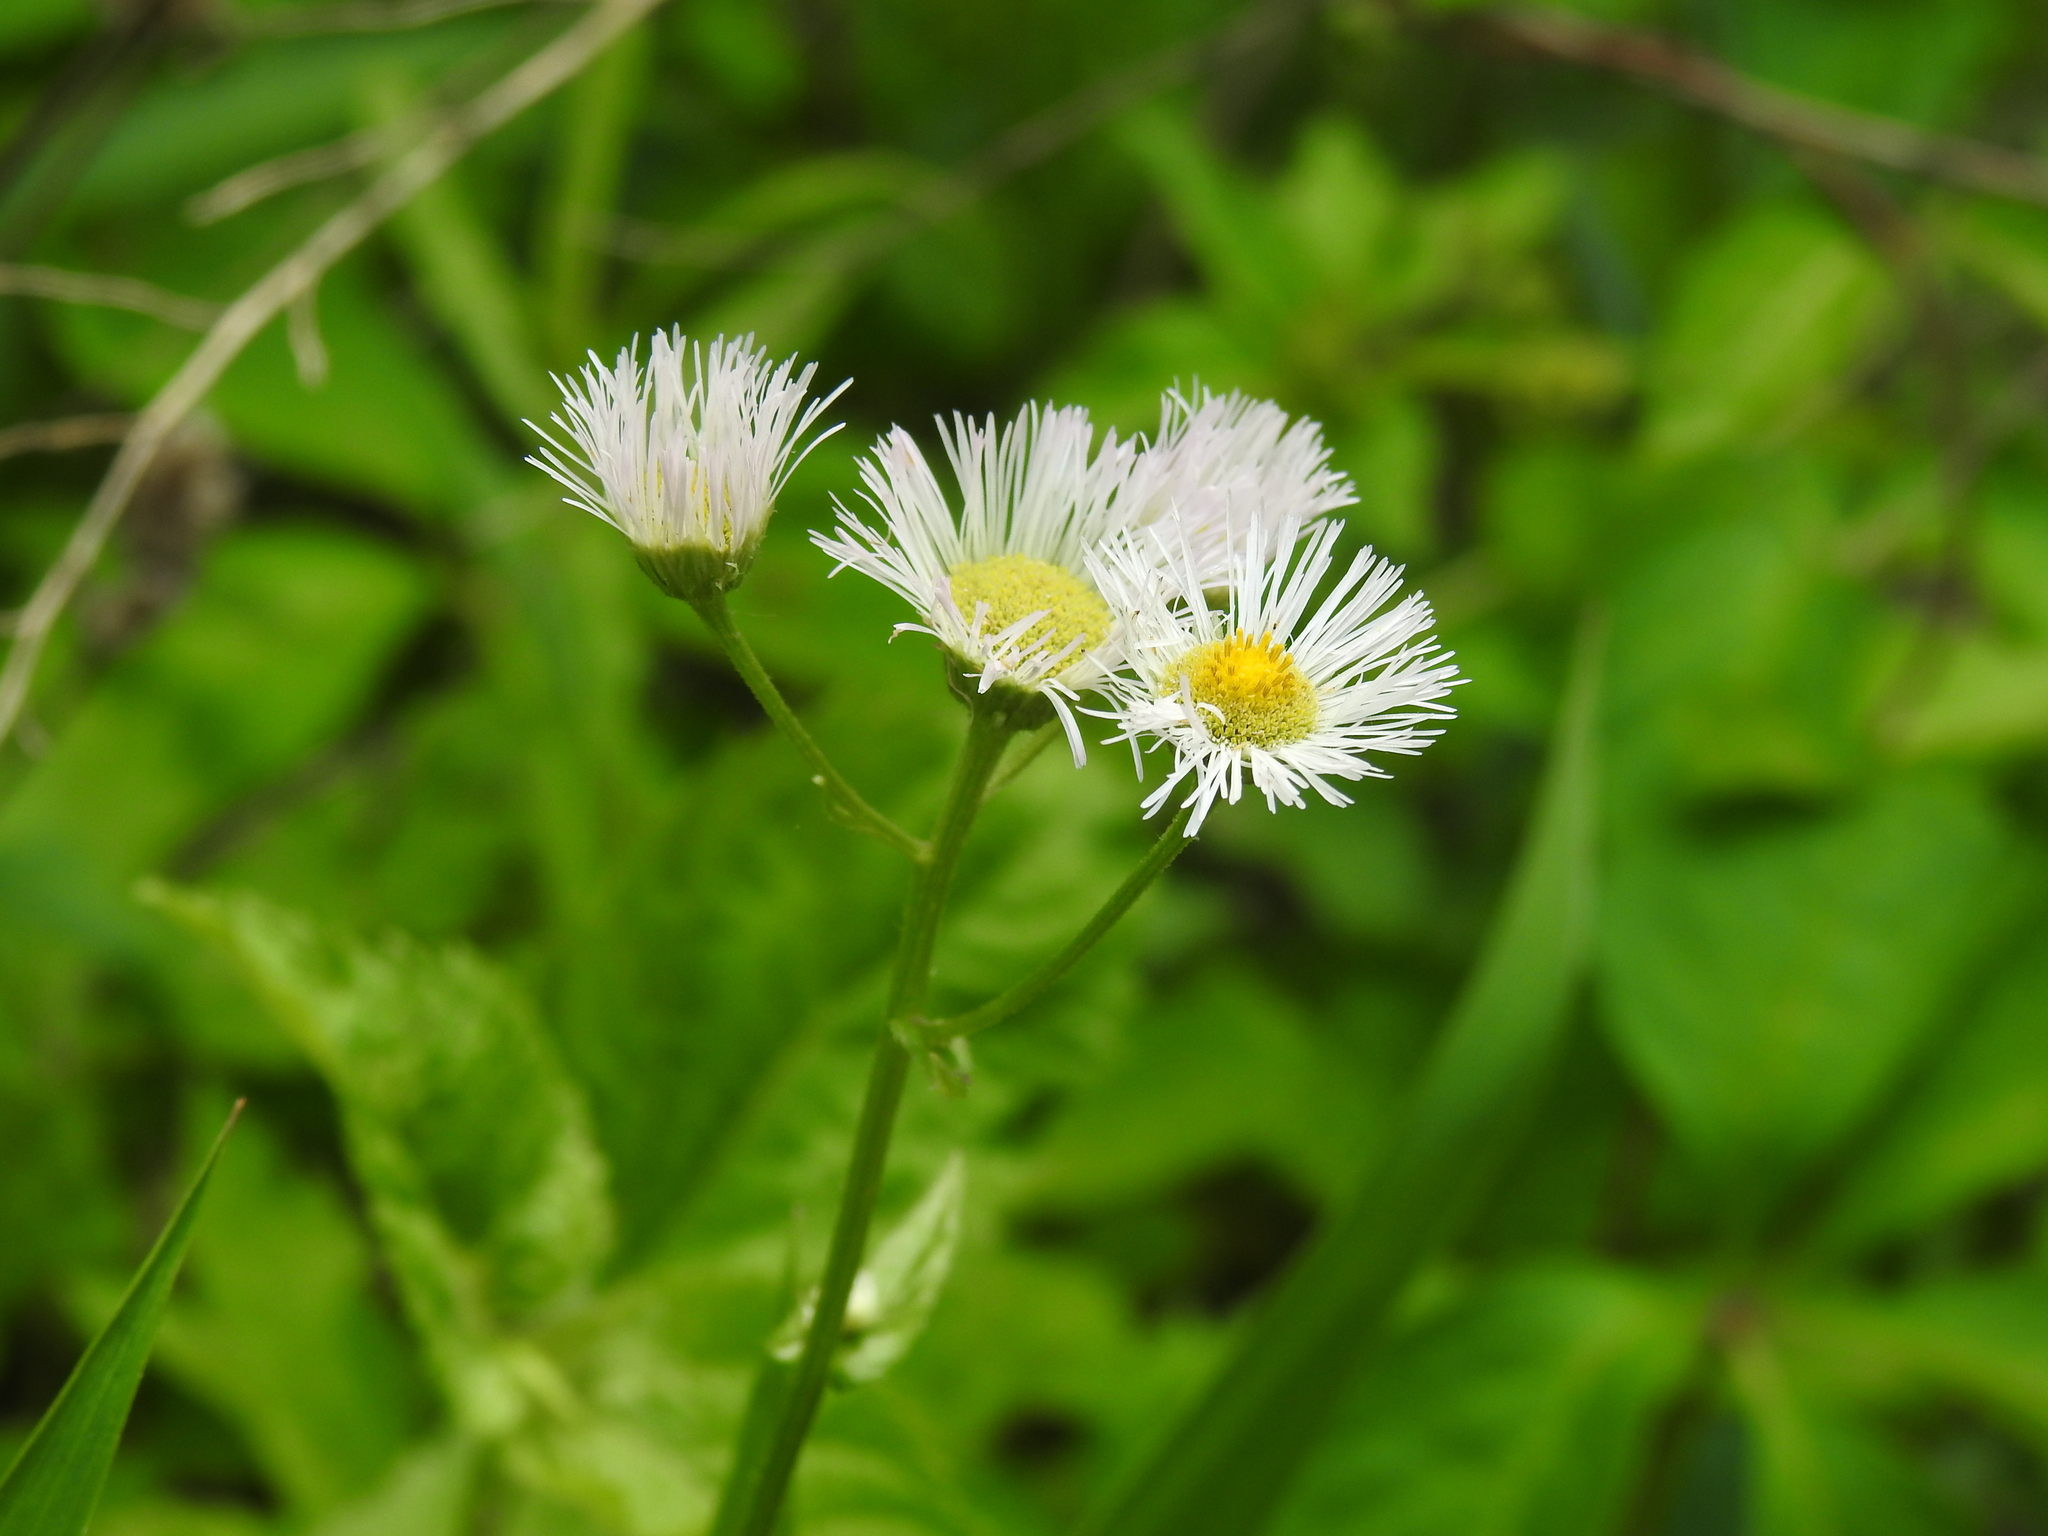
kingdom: Plantae
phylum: Tracheophyta
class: Magnoliopsida
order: Asterales
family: Asteraceae
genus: Erigeron
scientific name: Erigeron philadelphicus
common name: Robin's-plantain
